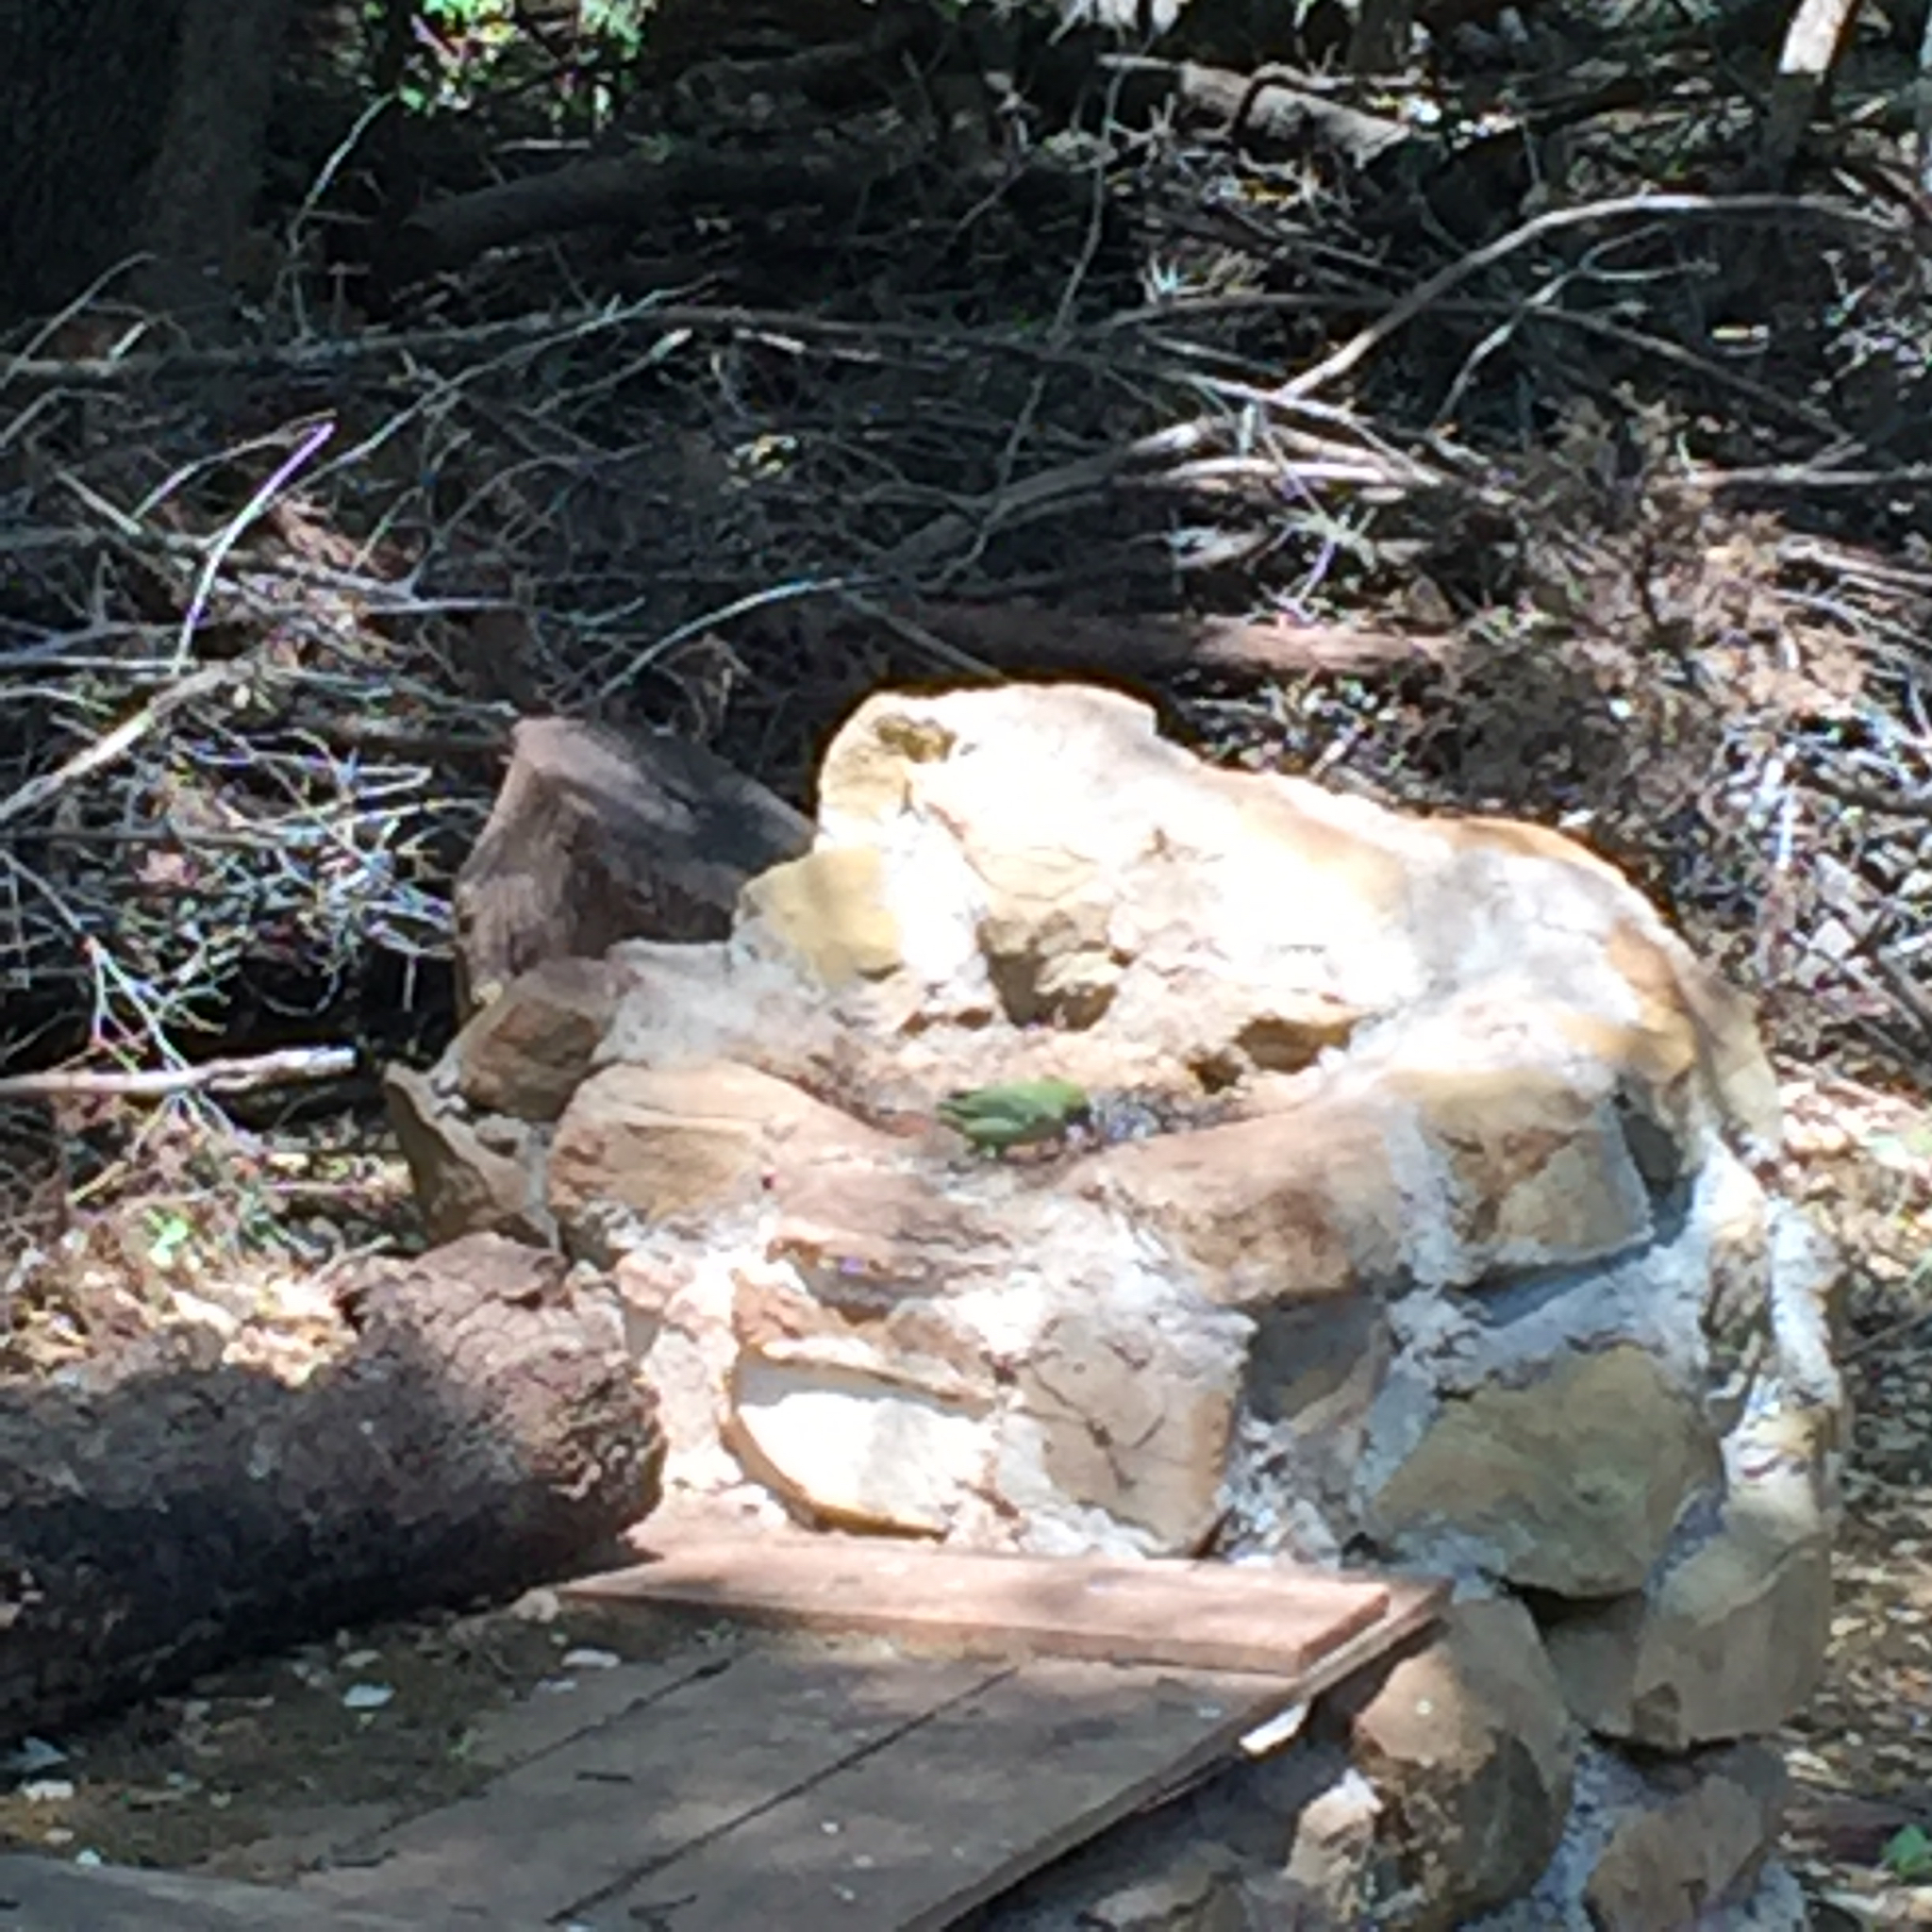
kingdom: Animalia
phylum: Chordata
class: Aves
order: Passeriformes
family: Cardinalidae
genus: Passerina
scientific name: Passerina ciris
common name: Painted bunting
